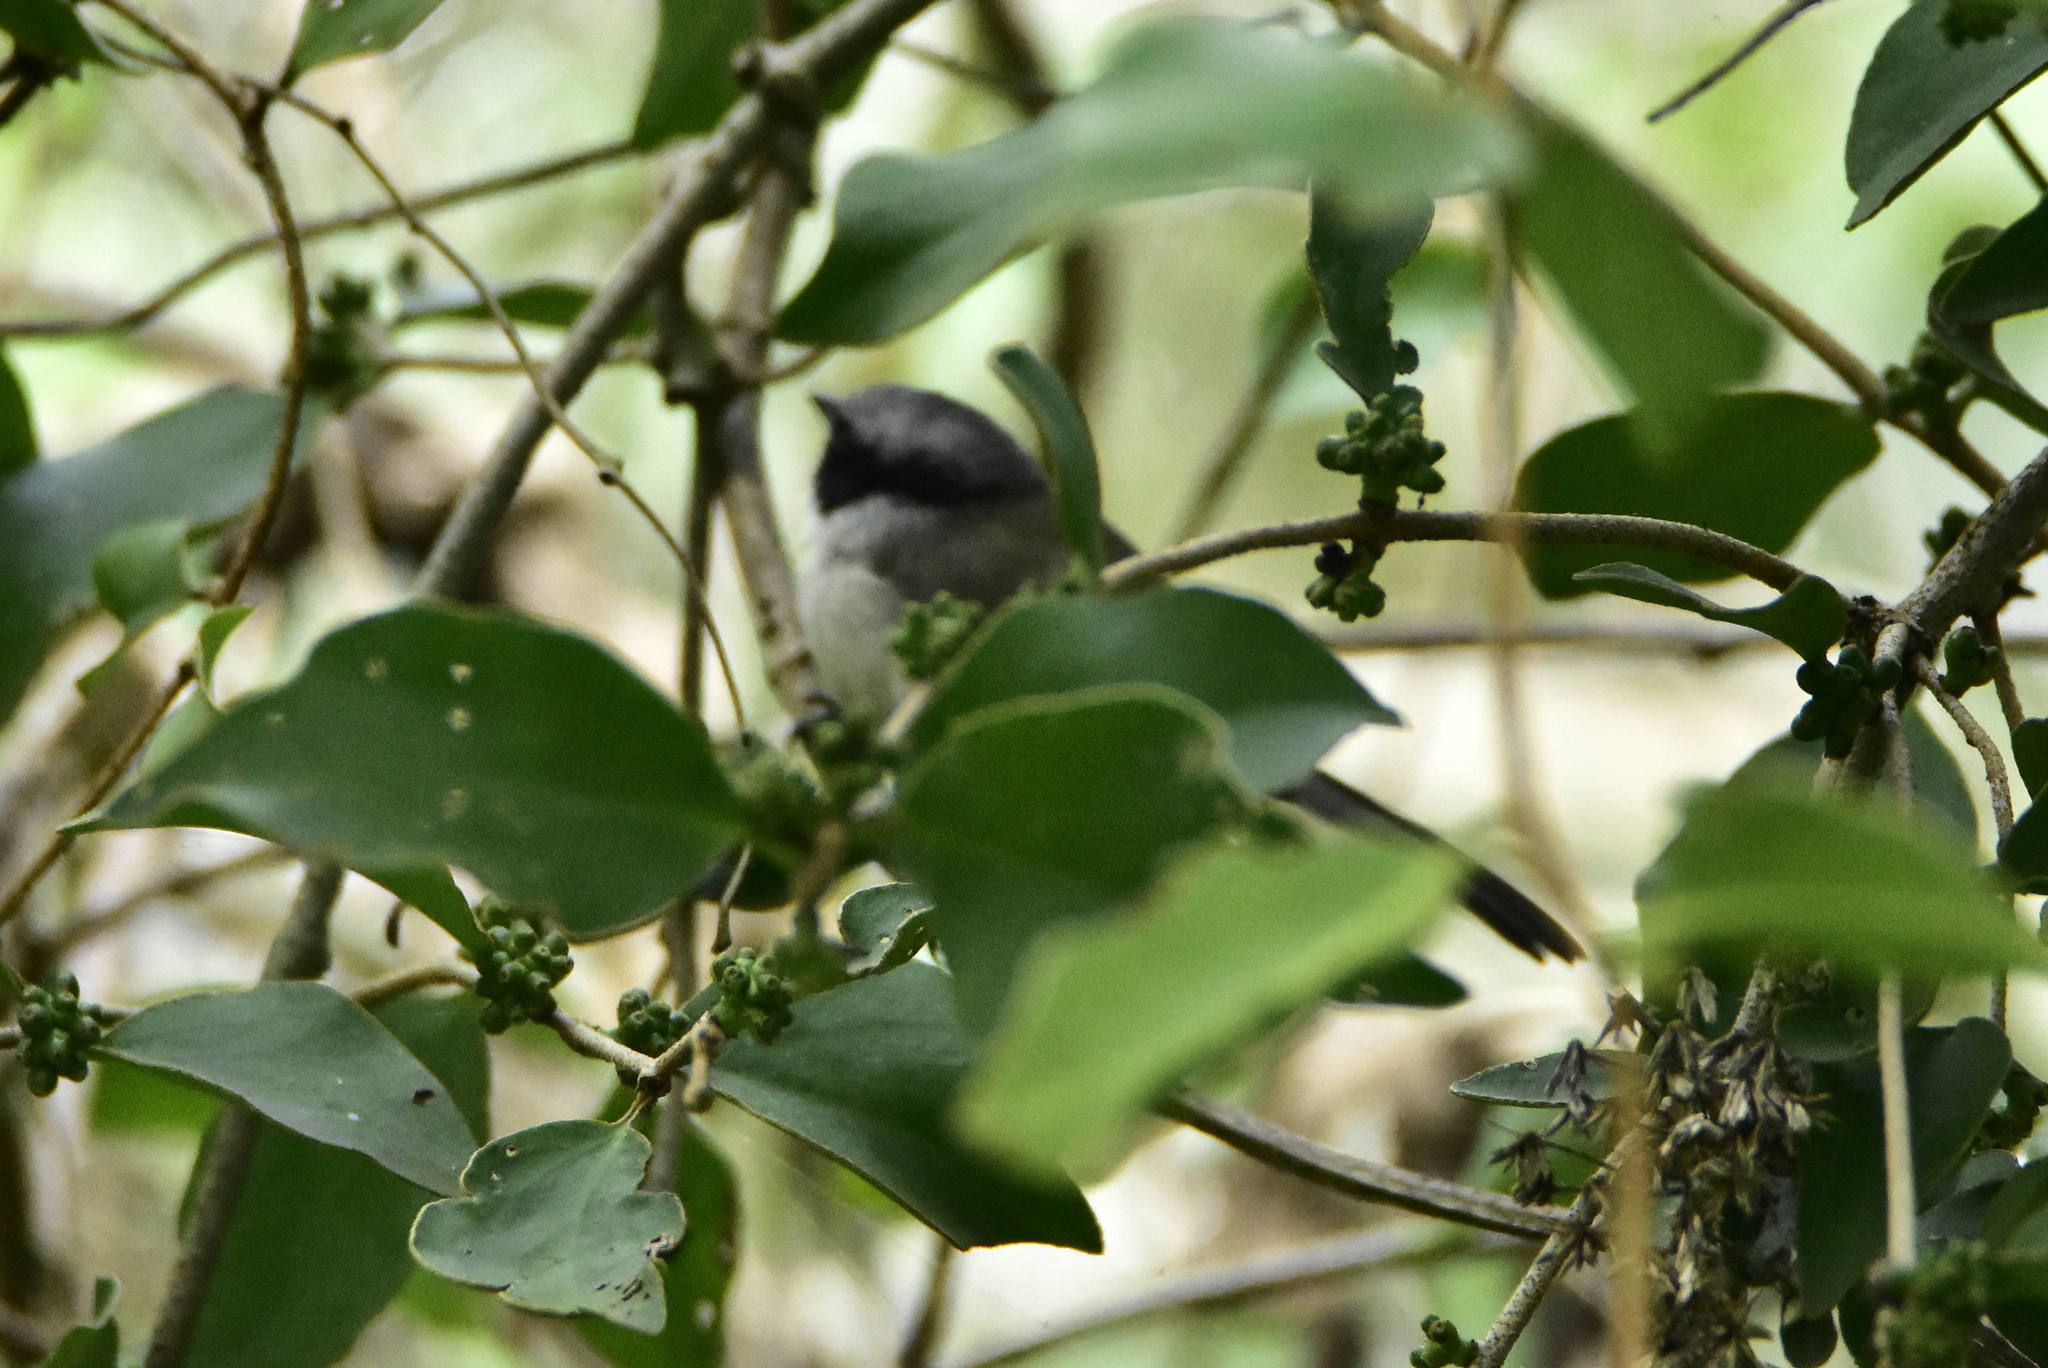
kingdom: Animalia
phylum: Chordata
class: Aves
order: Passeriformes
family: Aegithalidae
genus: Psaltriparus
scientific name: Psaltriparus minimus
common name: American bushtit
